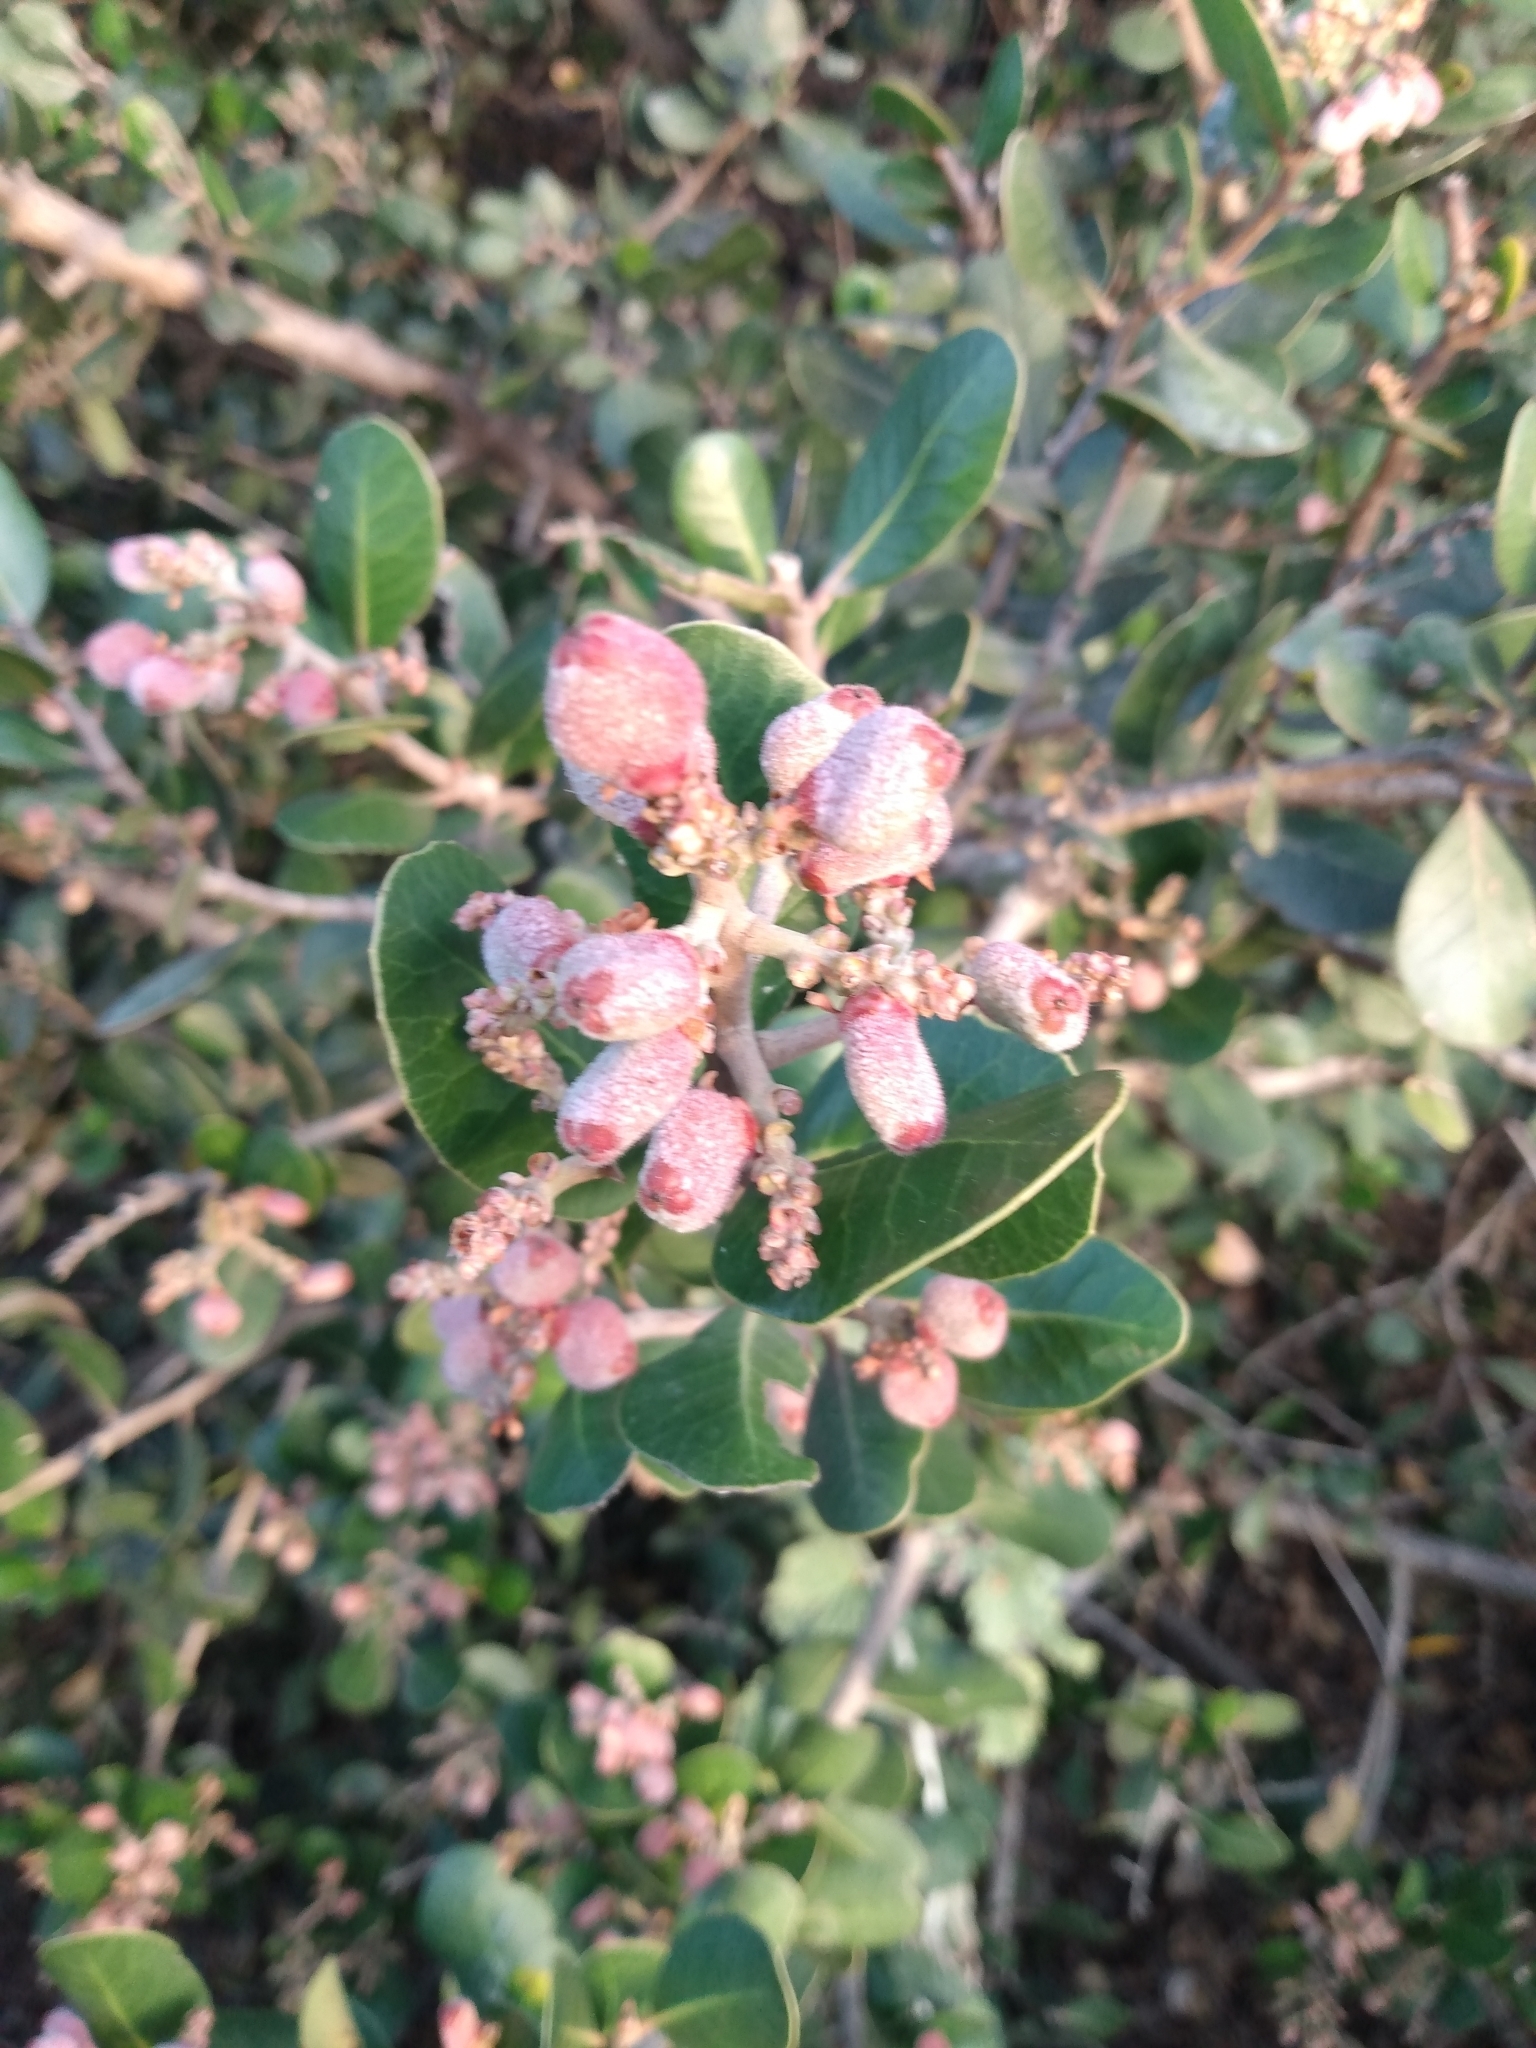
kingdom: Plantae
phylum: Tracheophyta
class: Magnoliopsida
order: Sapindales
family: Anacardiaceae
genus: Rhus
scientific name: Rhus integrifolia
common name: Lemonade sumac
